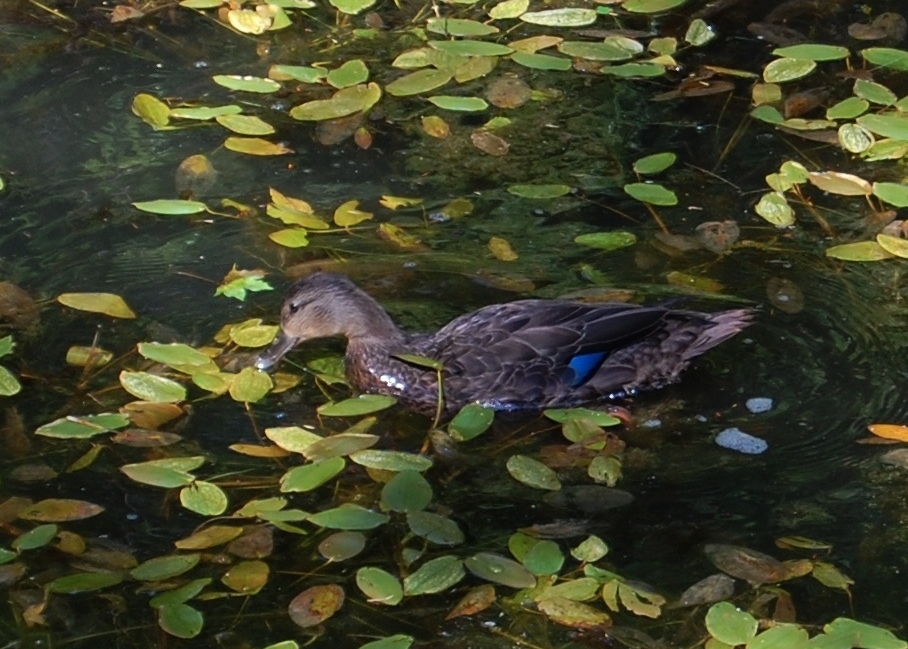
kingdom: Animalia
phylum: Chordata
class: Aves
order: Anseriformes
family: Anatidae
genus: Anas
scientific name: Anas rubripes
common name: American black duck
